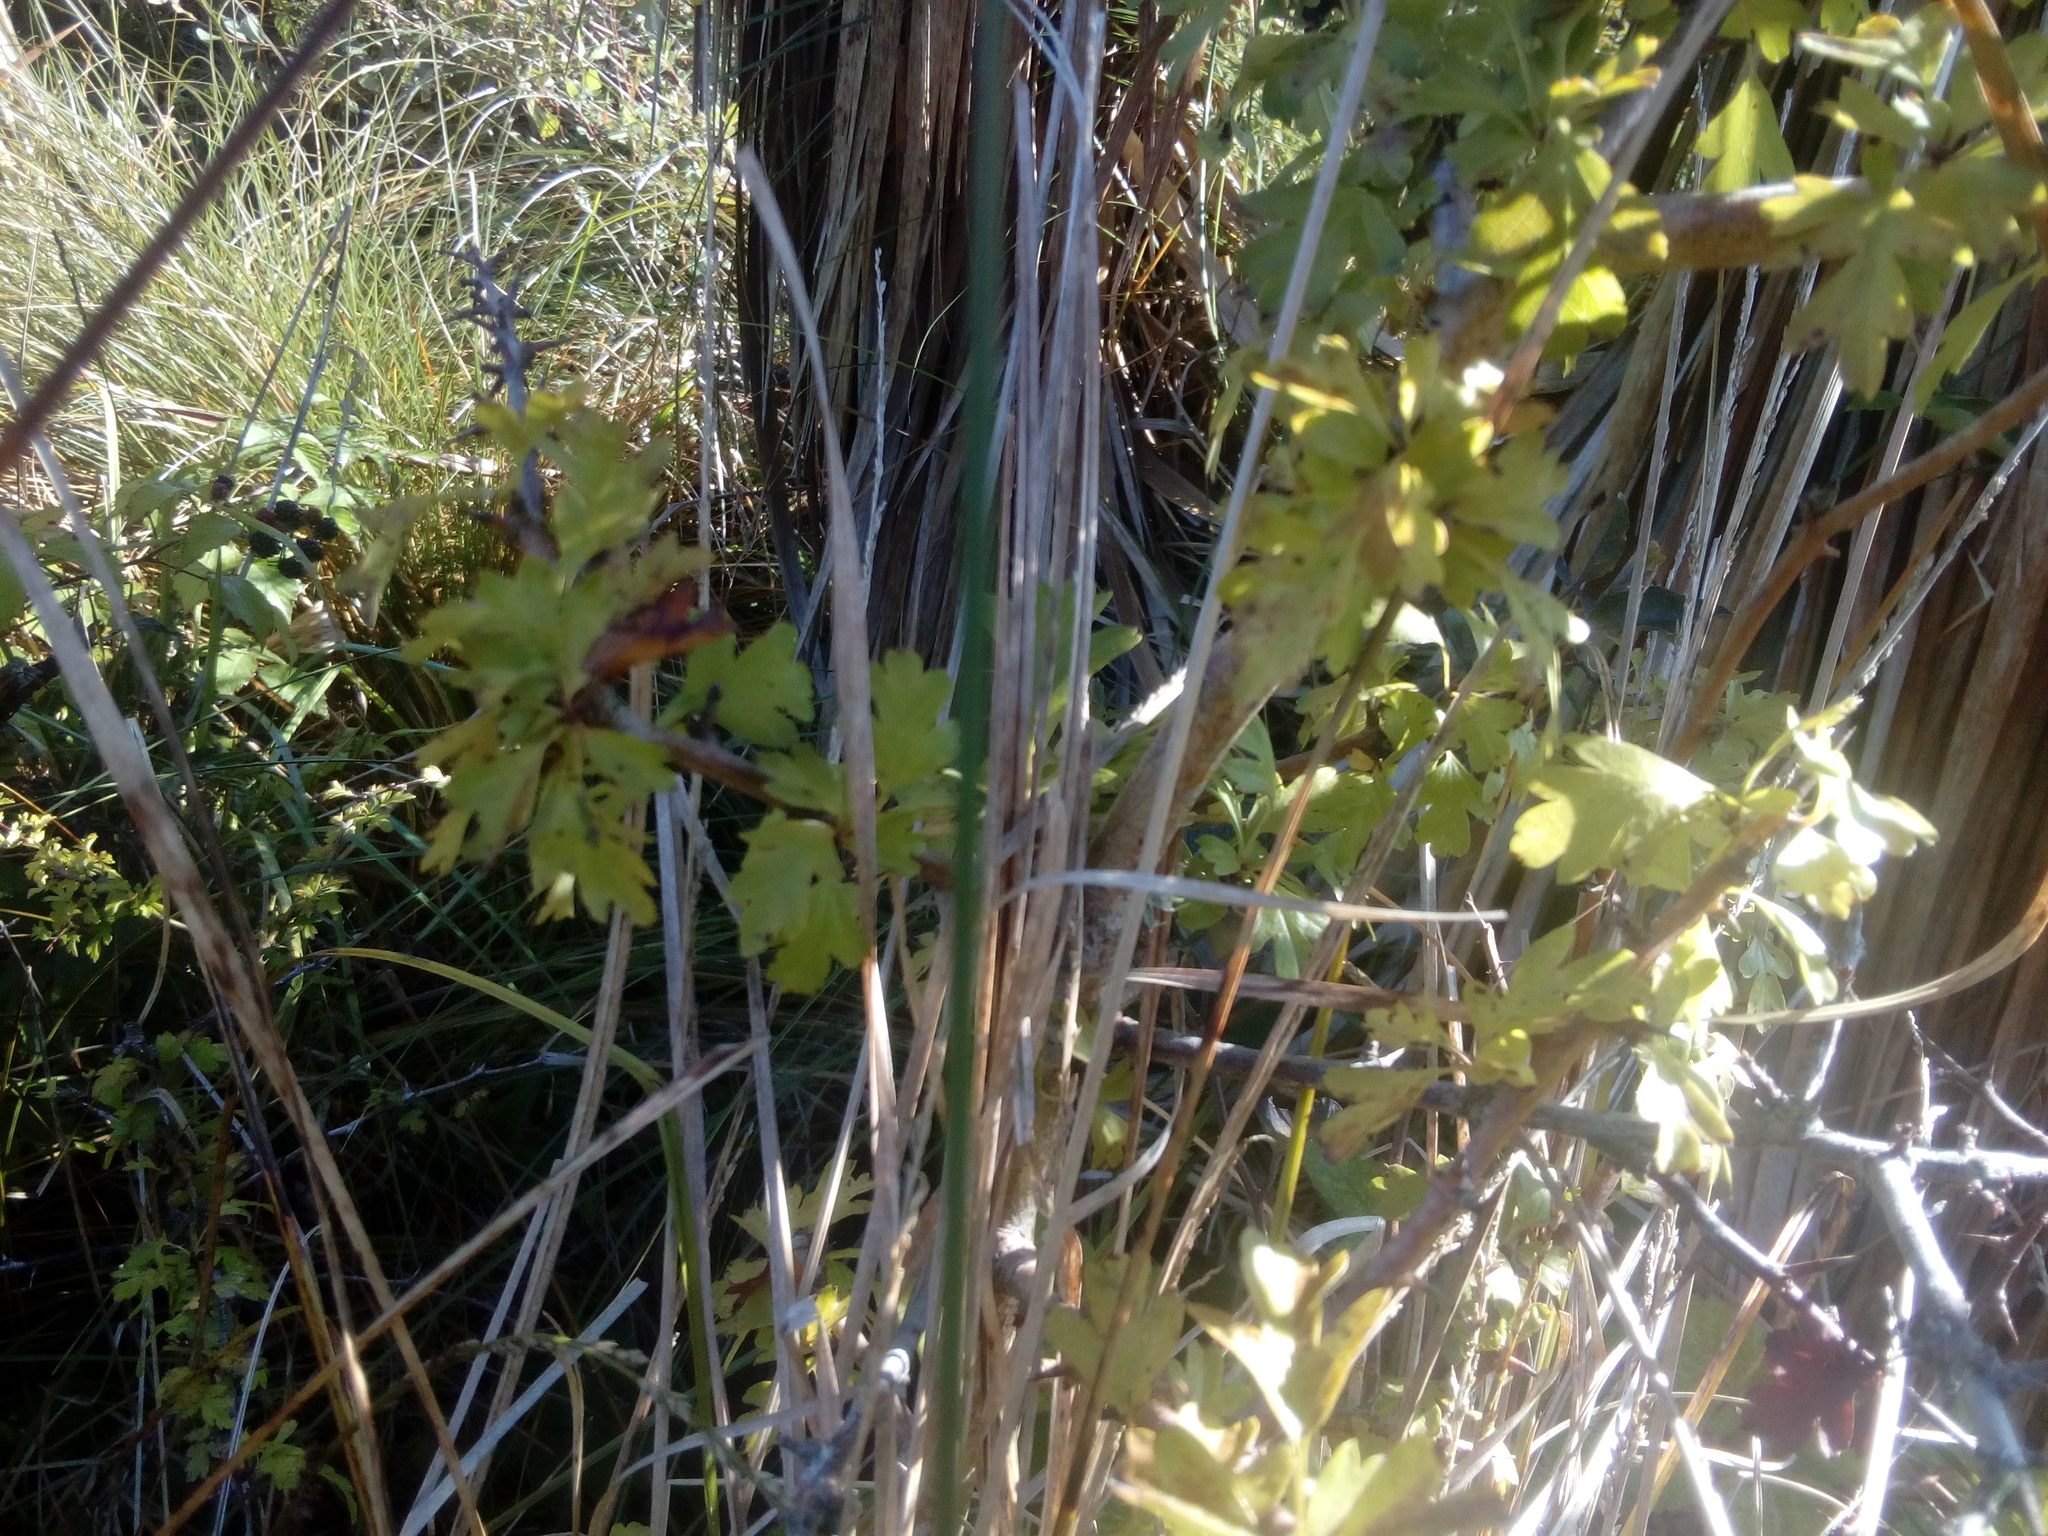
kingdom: Plantae
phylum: Tracheophyta
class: Magnoliopsida
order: Rosales
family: Rosaceae
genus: Crataegus
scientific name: Crataegus monogyna
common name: Hawthorn
